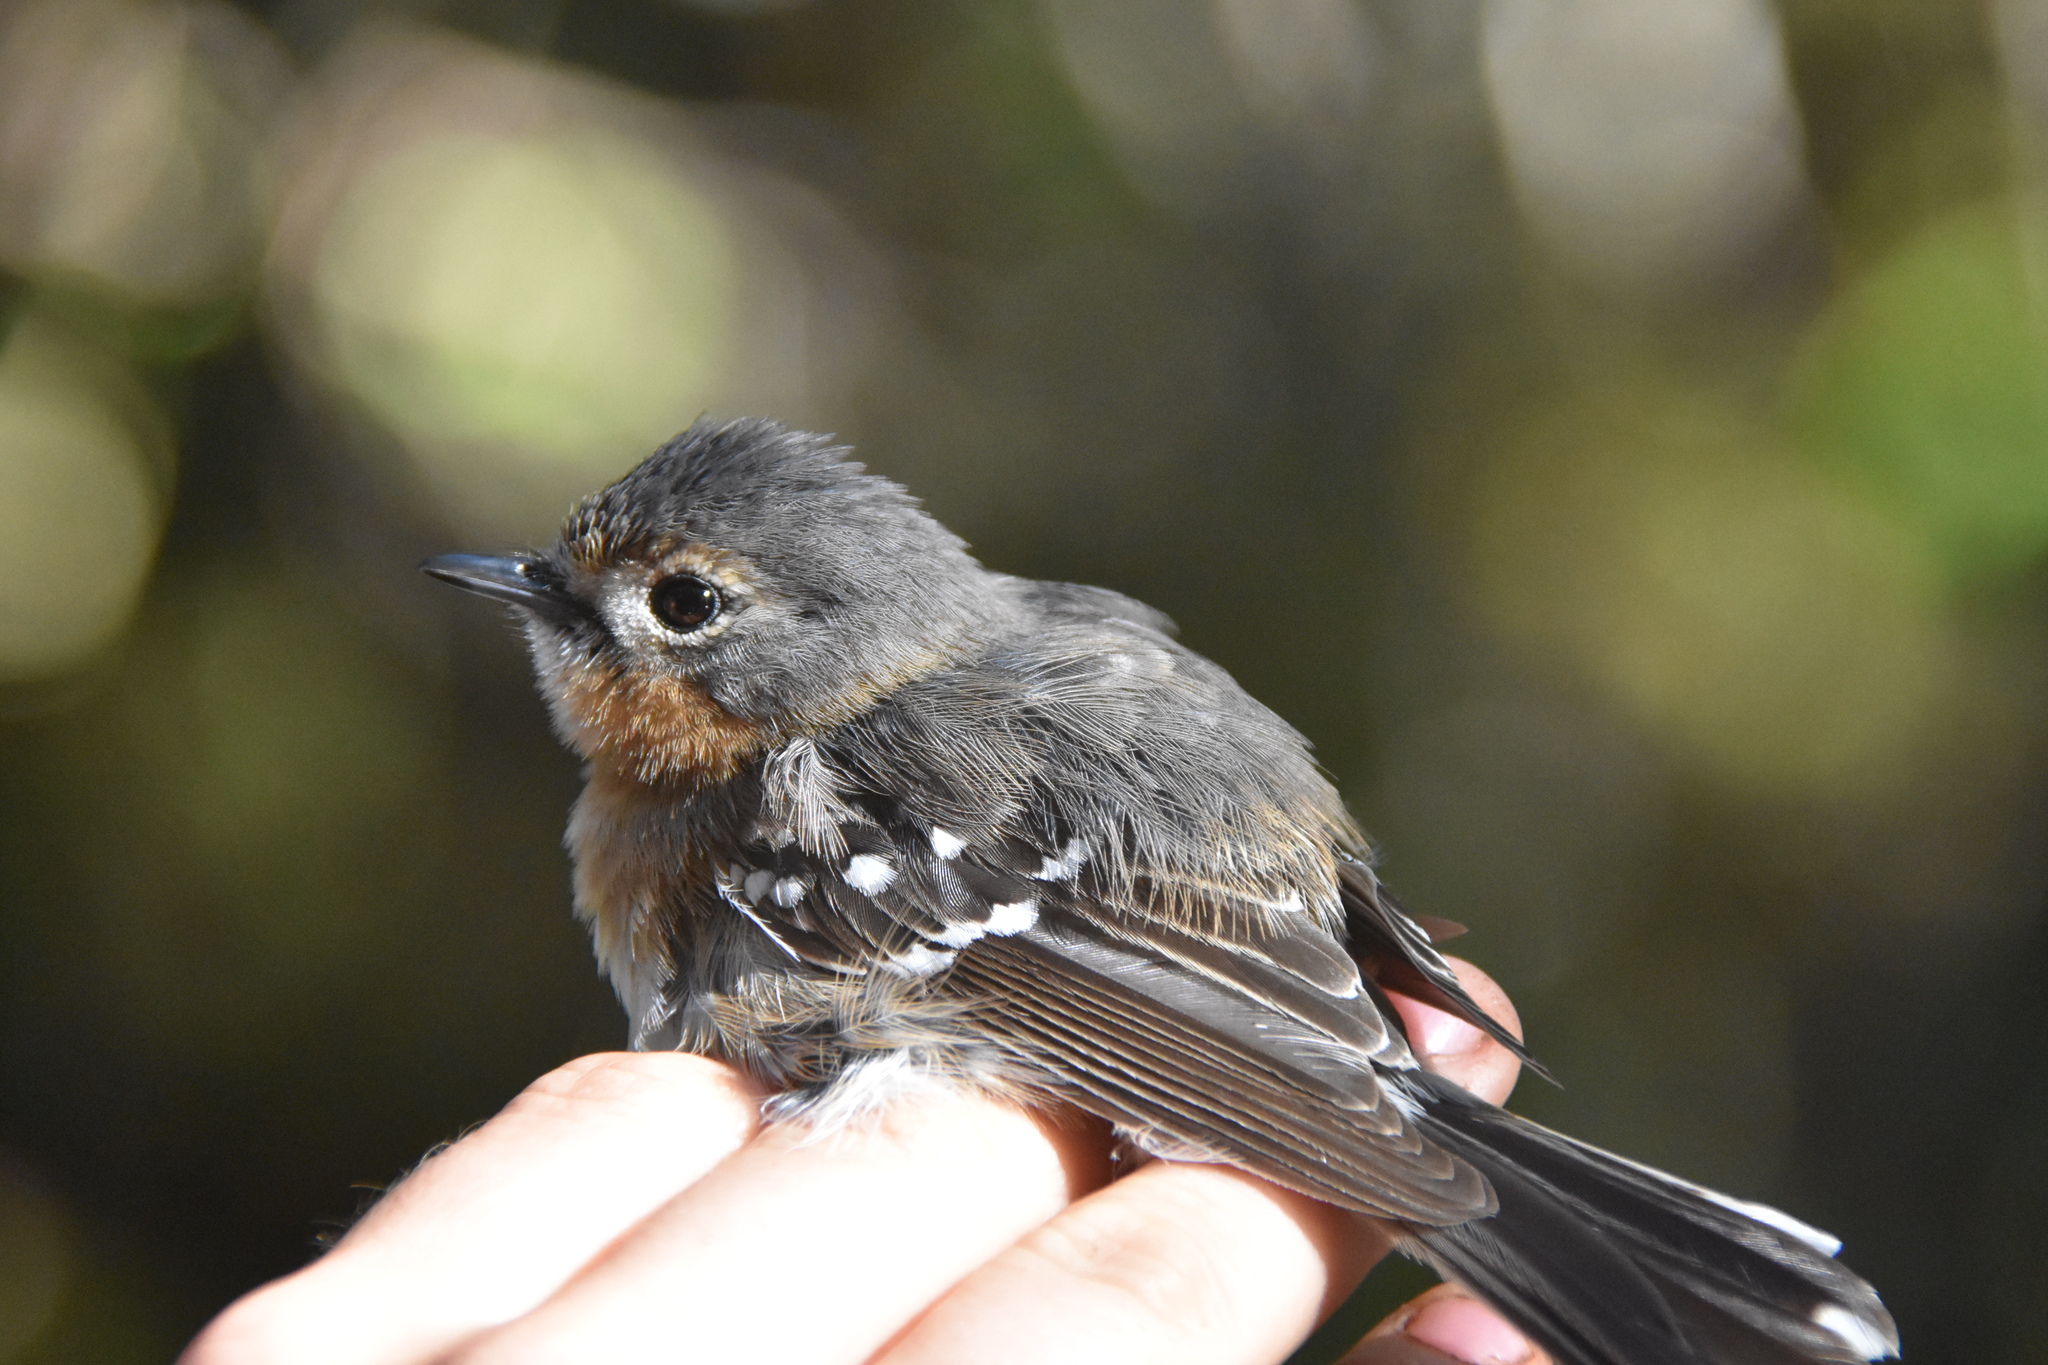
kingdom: Animalia
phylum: Chordata
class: Aves
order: Passeriformes
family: Monarchidae
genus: Chasiempis
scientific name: Chasiempis sclateri
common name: Kauai elepaio
